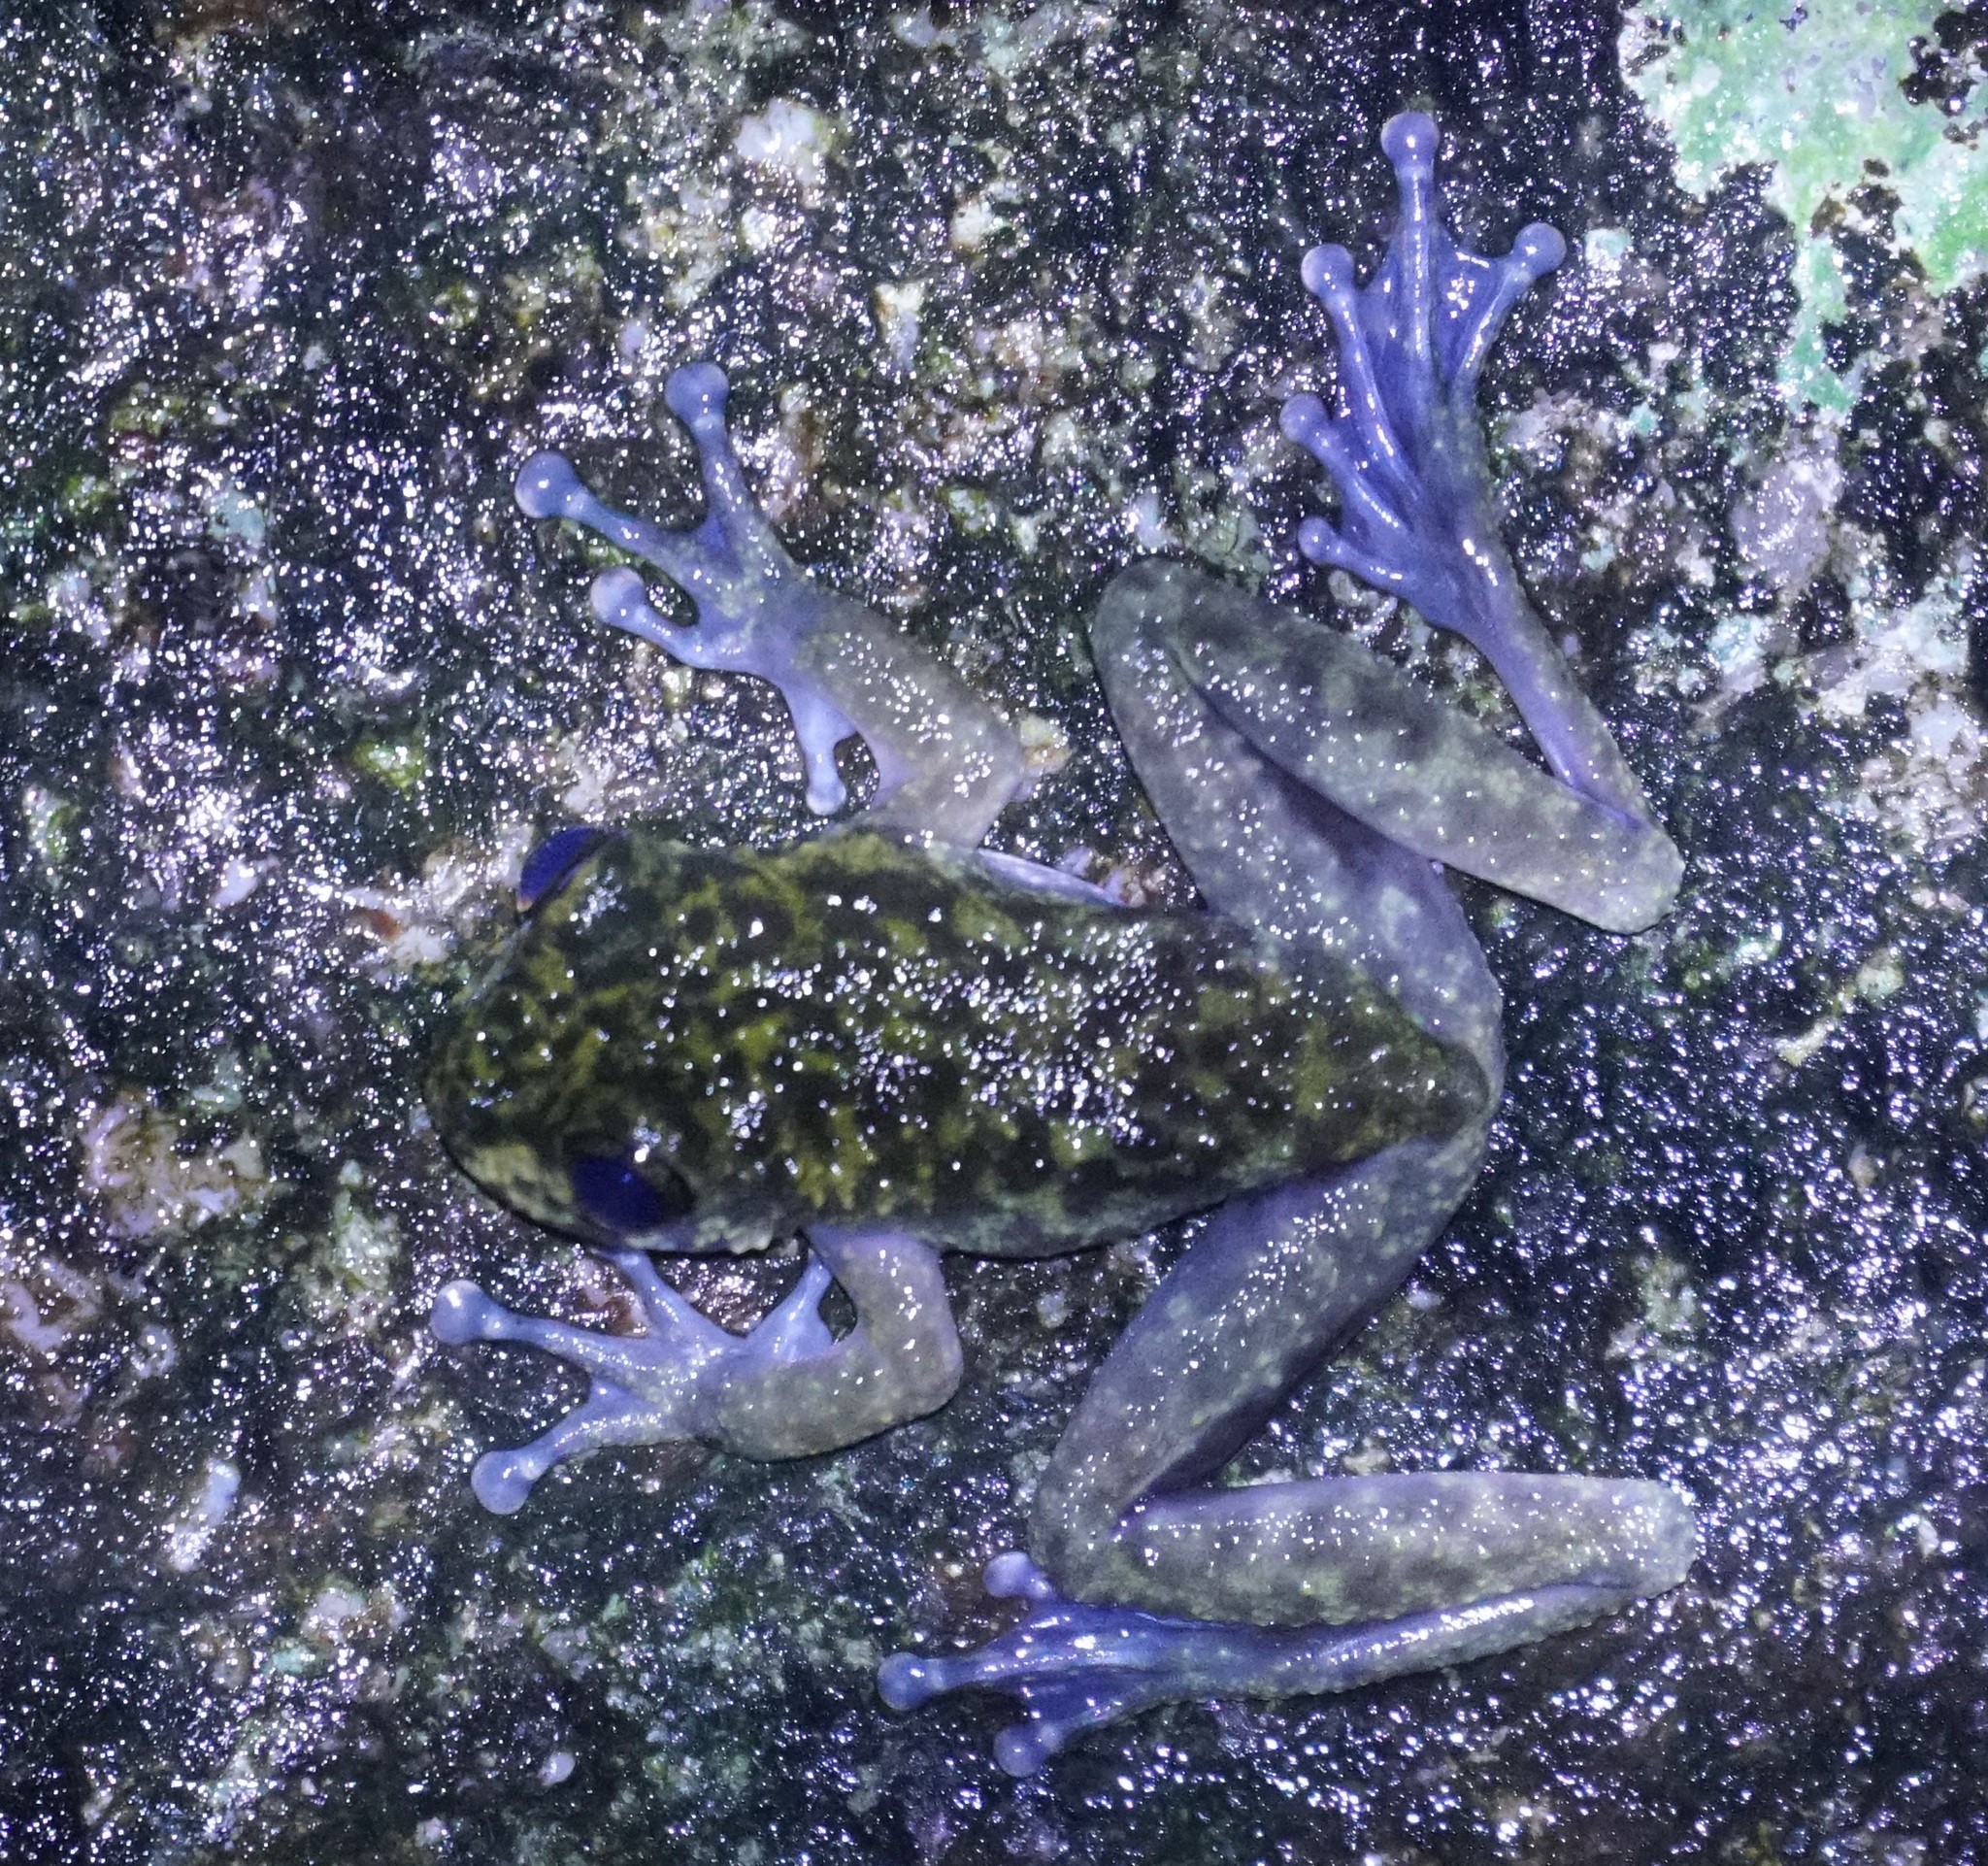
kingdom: Animalia
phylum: Chordata
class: Amphibia
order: Anura
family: Pelodryadidae
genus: Ranoidea
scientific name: Ranoidea nannotis
